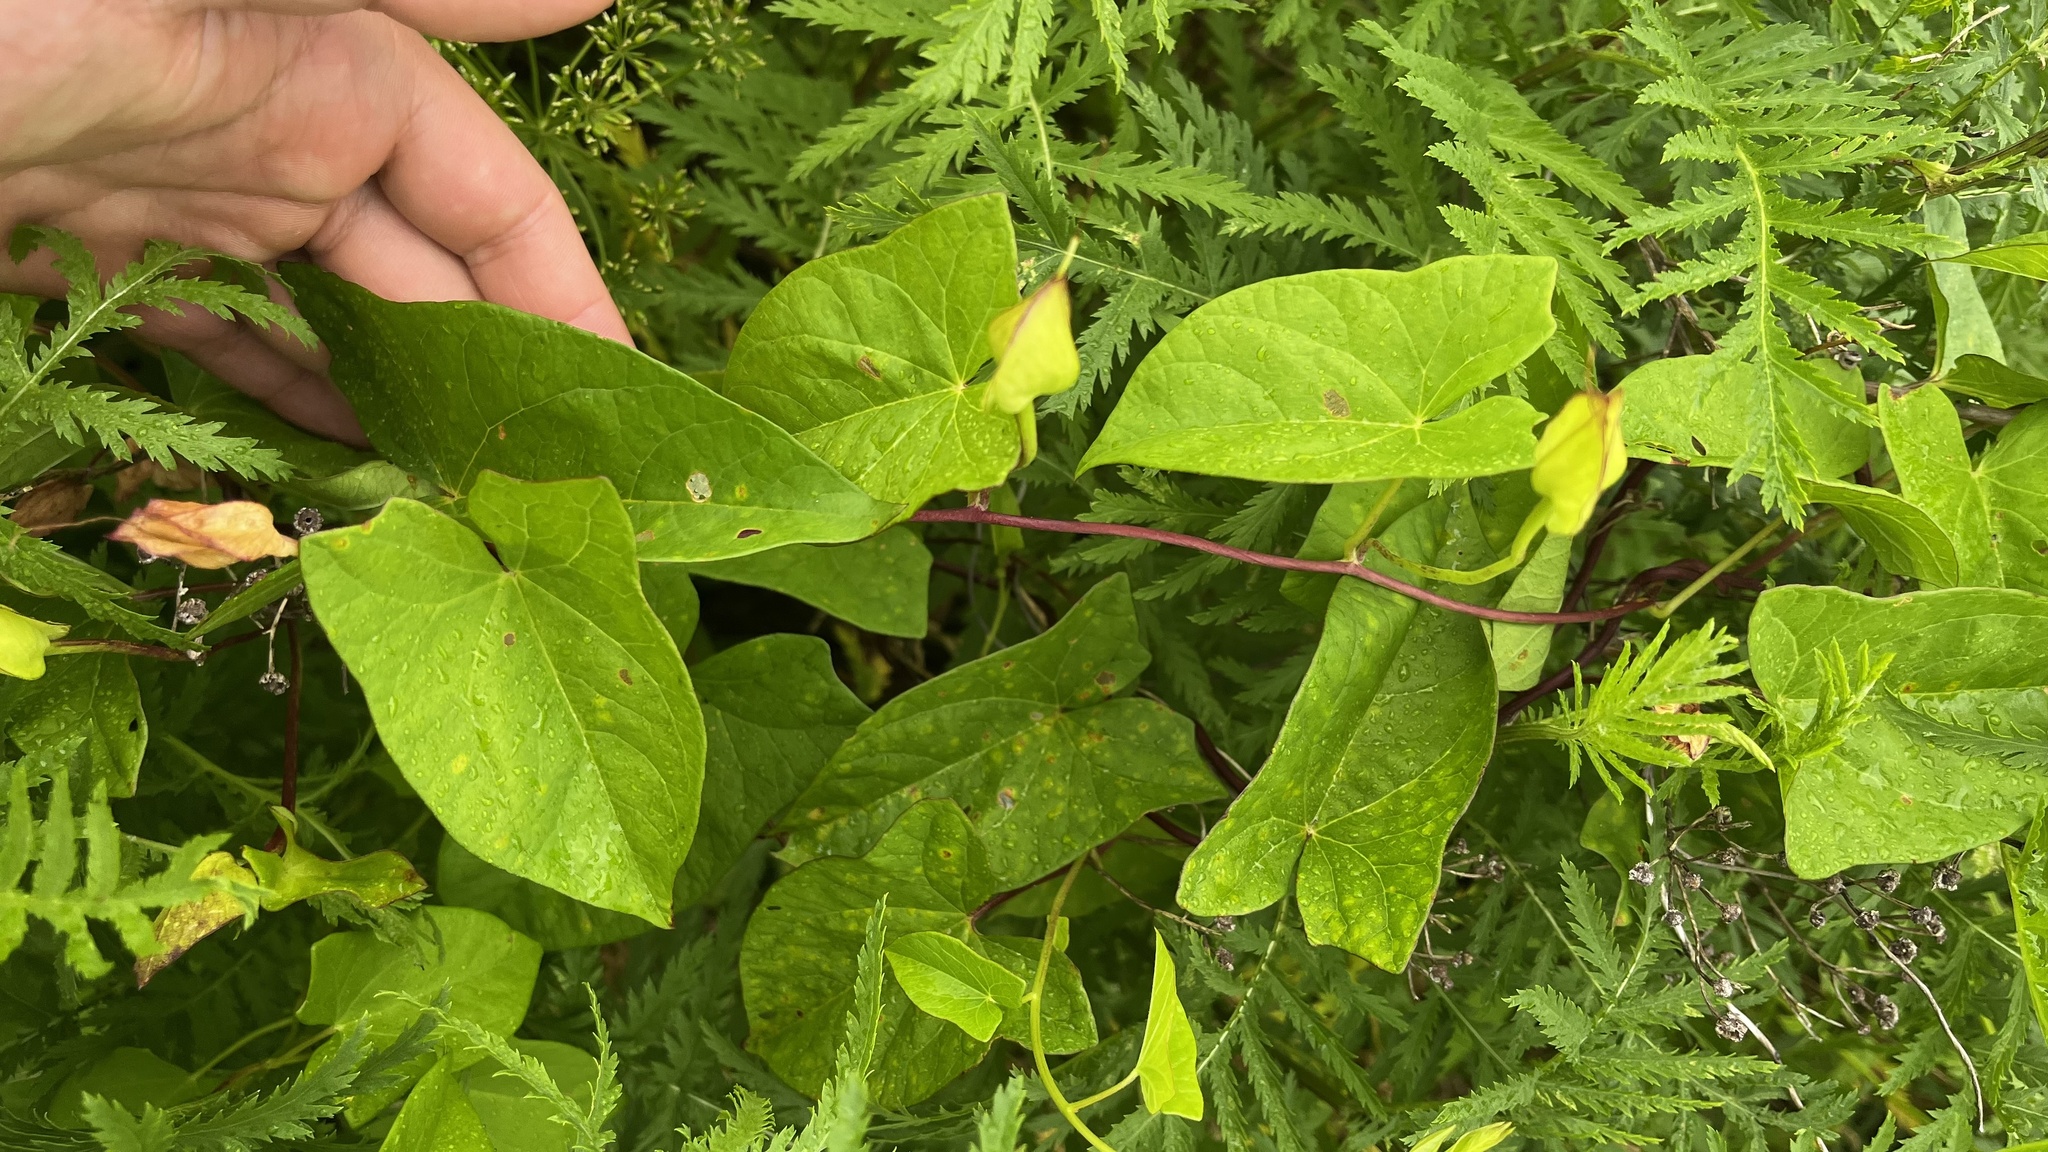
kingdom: Plantae
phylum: Tracheophyta
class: Magnoliopsida
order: Solanales
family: Convolvulaceae
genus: Calystegia
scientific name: Calystegia sepium
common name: Hedge bindweed
